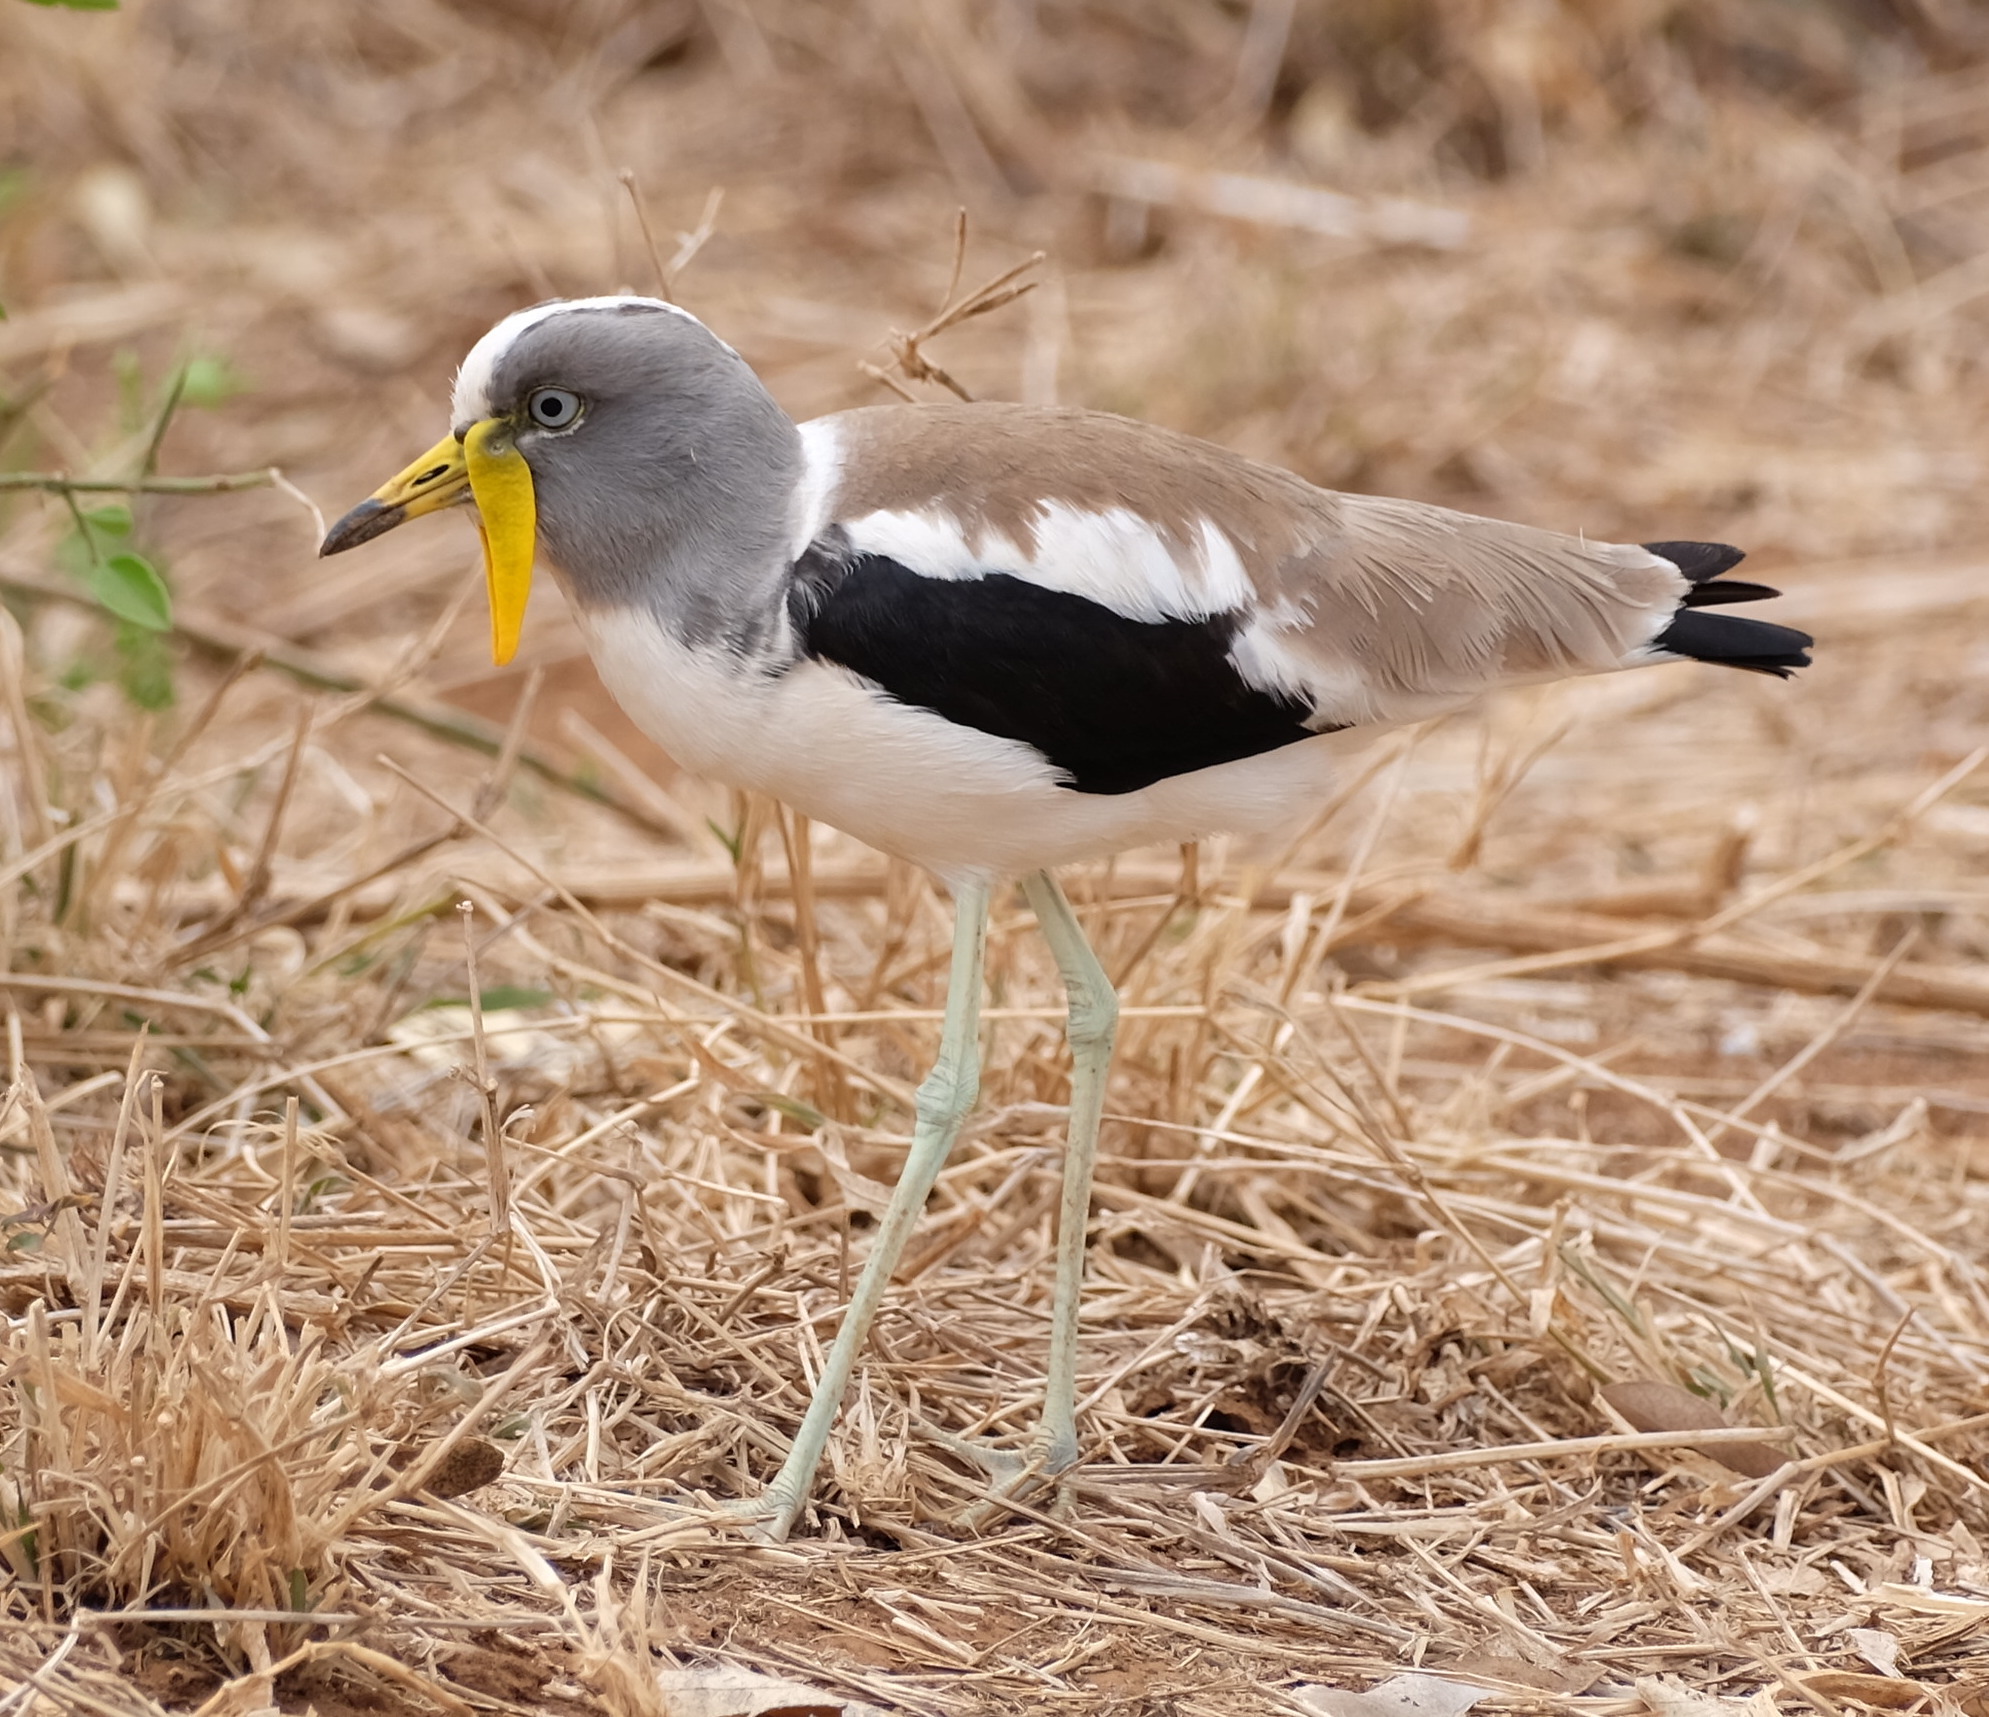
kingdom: Animalia
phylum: Chordata
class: Aves
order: Charadriiformes
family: Charadriidae
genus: Vanellus
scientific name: Vanellus albiceps
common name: White-crowned lapwing
